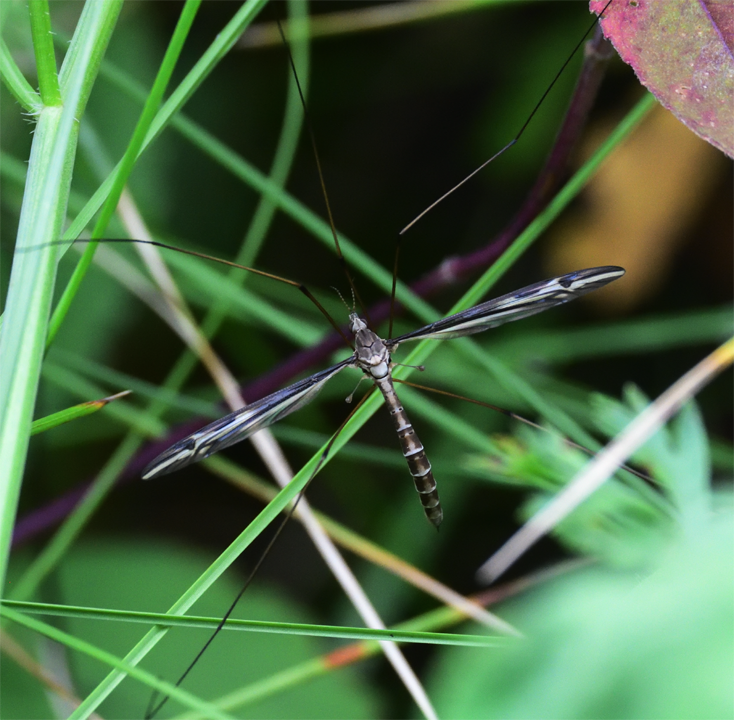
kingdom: Animalia
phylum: Arthropoda
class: Insecta
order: Diptera
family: Tipulidae
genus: Tipula
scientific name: Tipula furca
